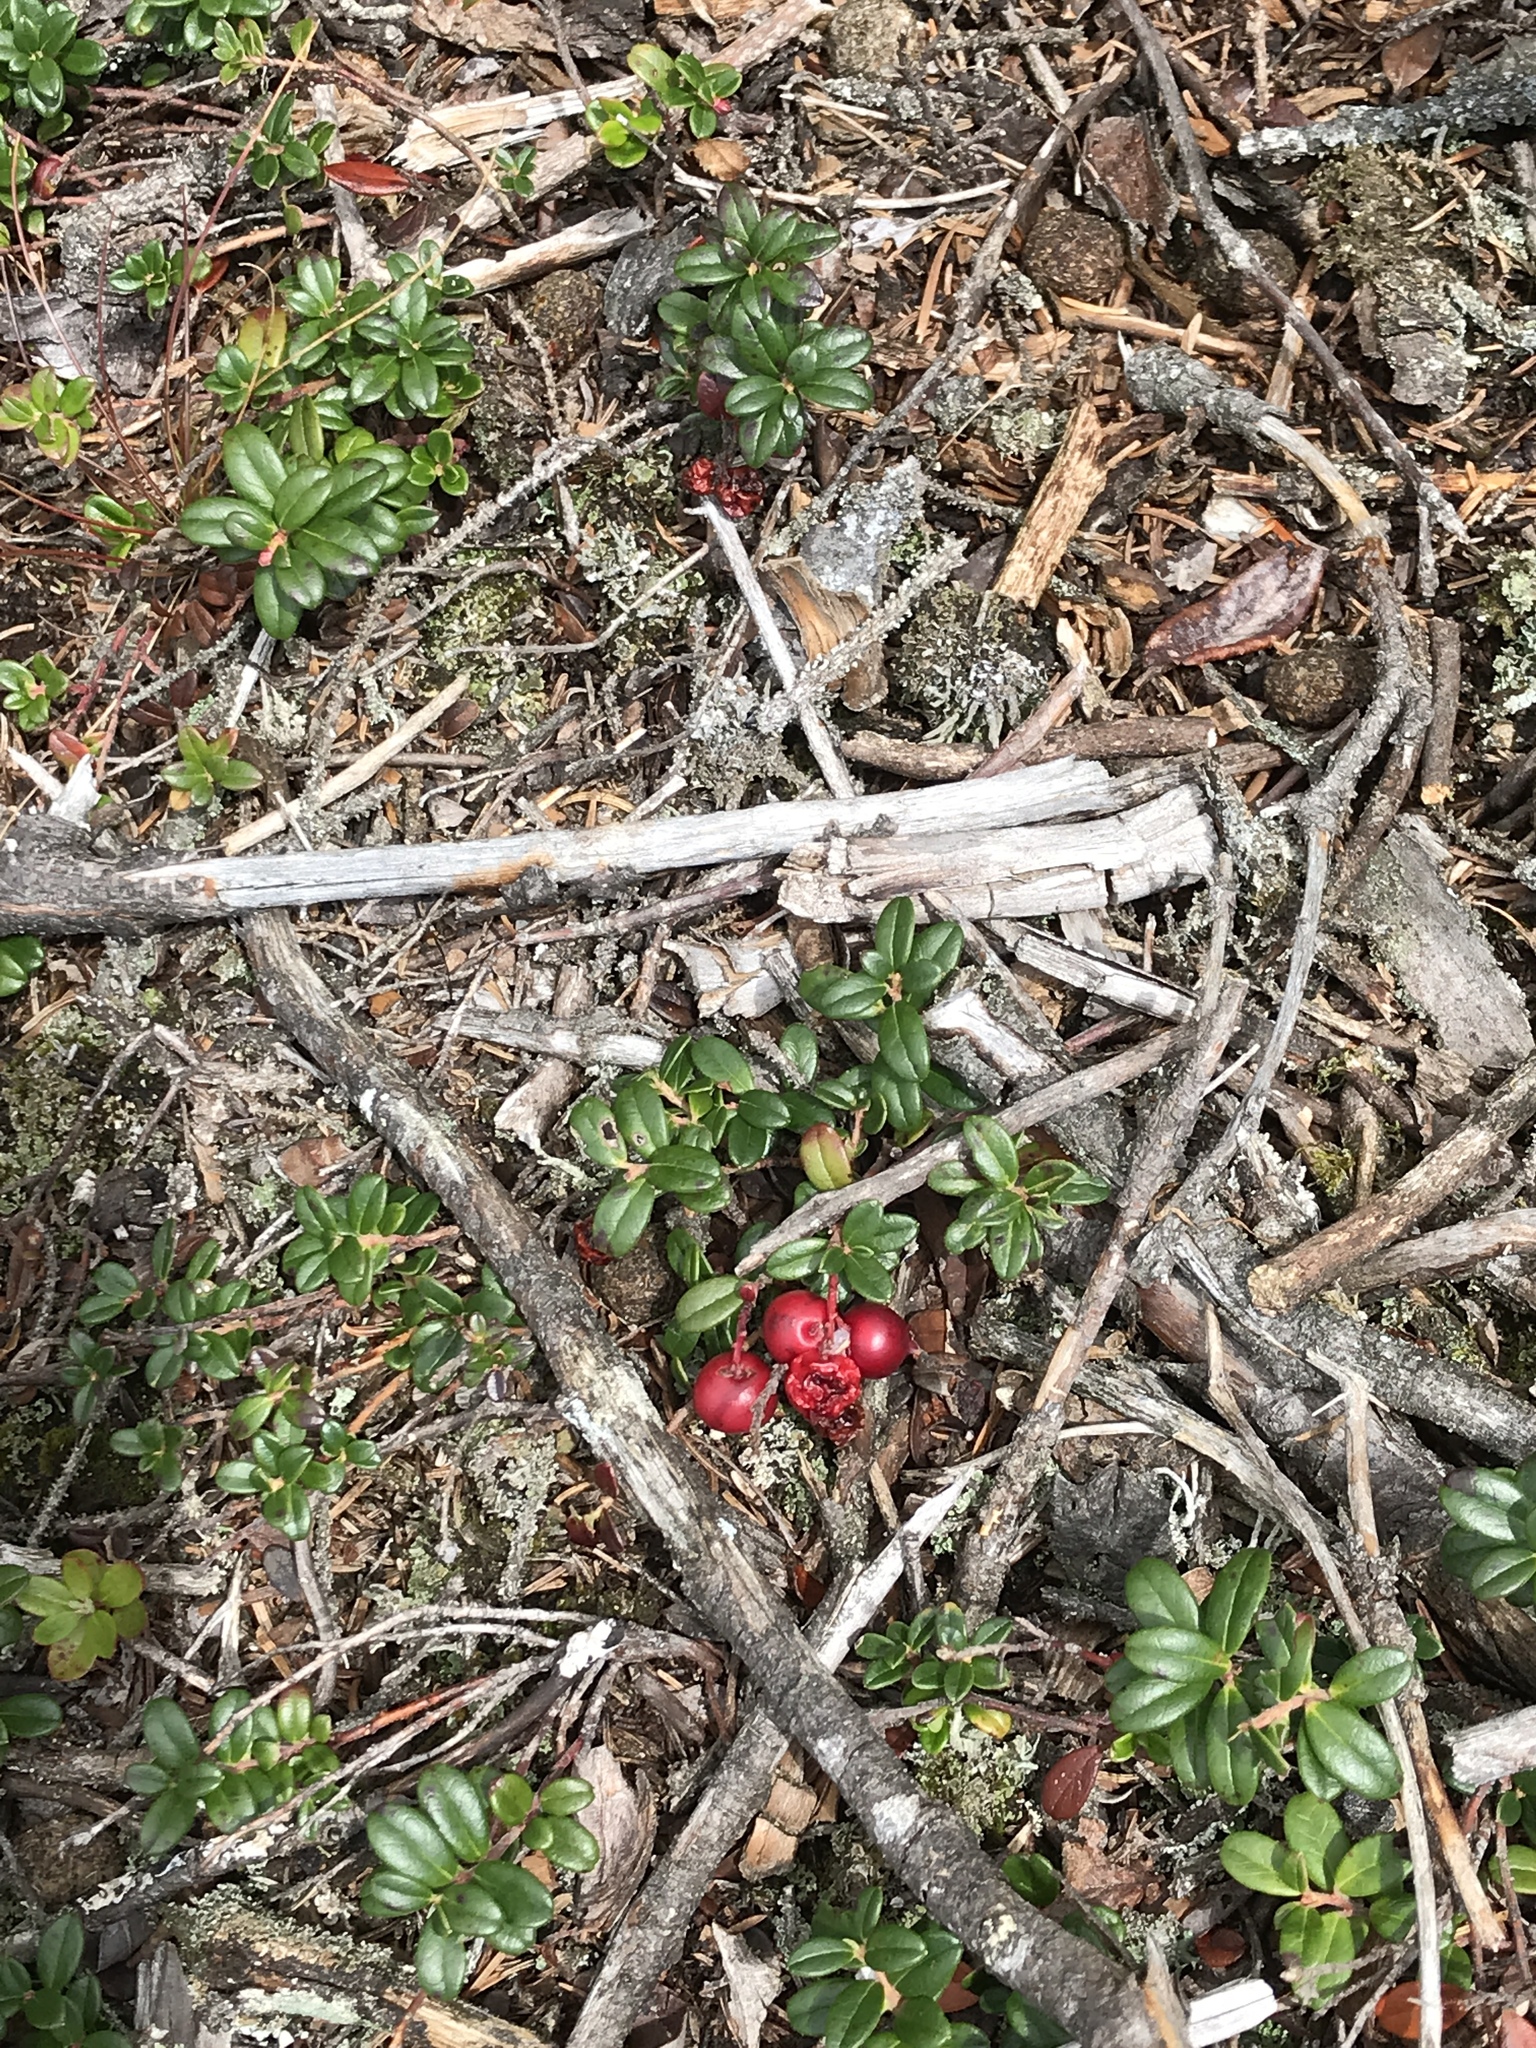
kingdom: Plantae
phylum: Tracheophyta
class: Magnoliopsida
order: Ericales
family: Ericaceae
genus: Vaccinium
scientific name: Vaccinium vitis-idaea
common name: Cowberry
